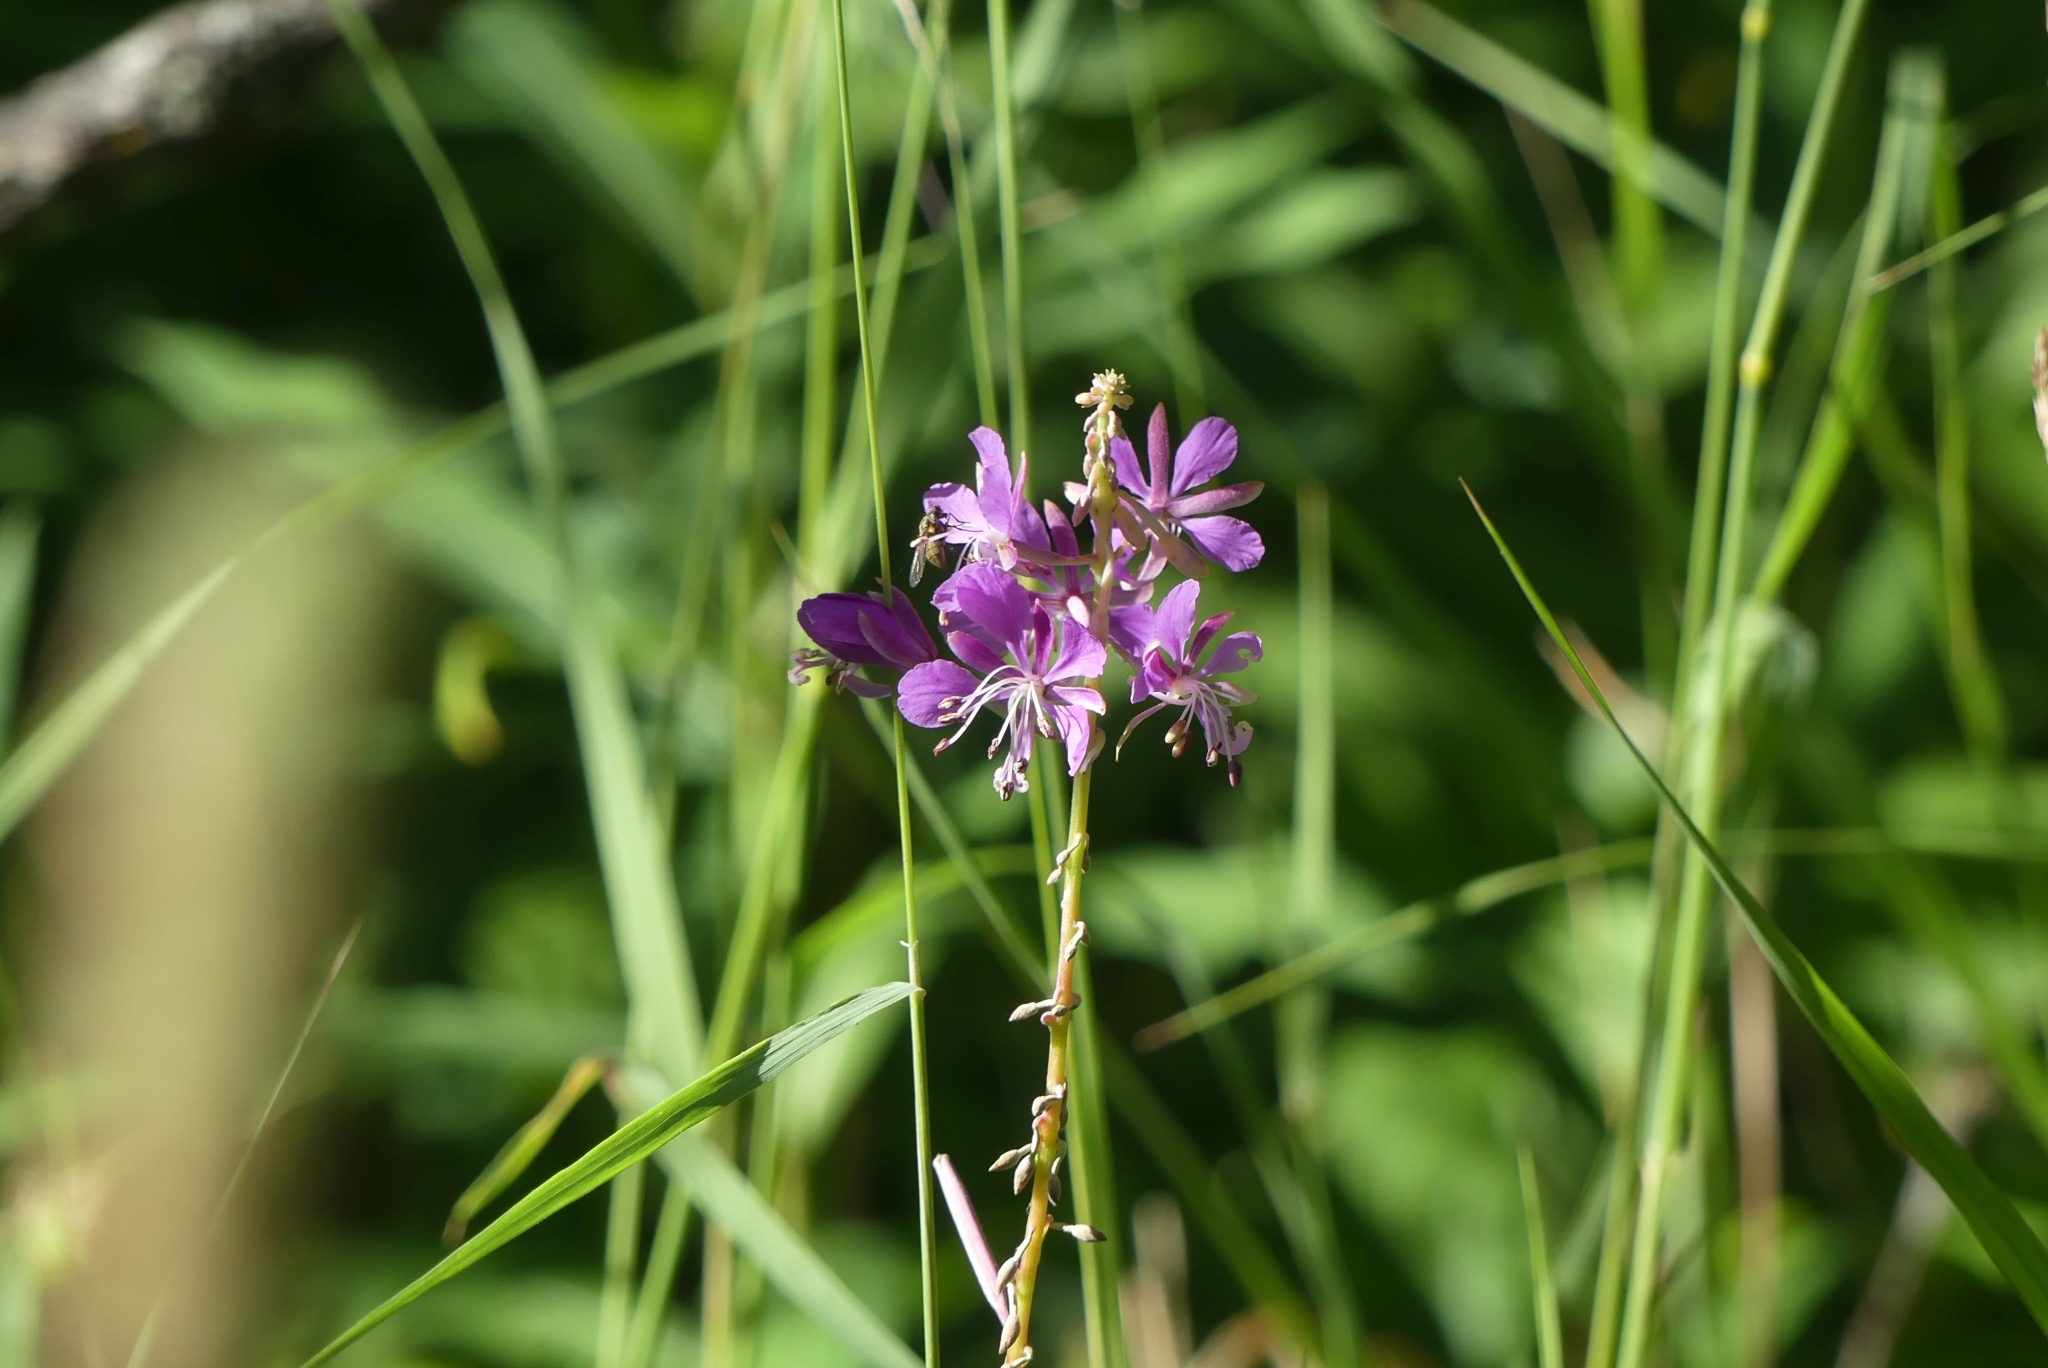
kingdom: Plantae
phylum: Tracheophyta
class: Magnoliopsida
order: Myrtales
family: Onagraceae
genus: Chamaenerion
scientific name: Chamaenerion angustifolium
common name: Fireweed
